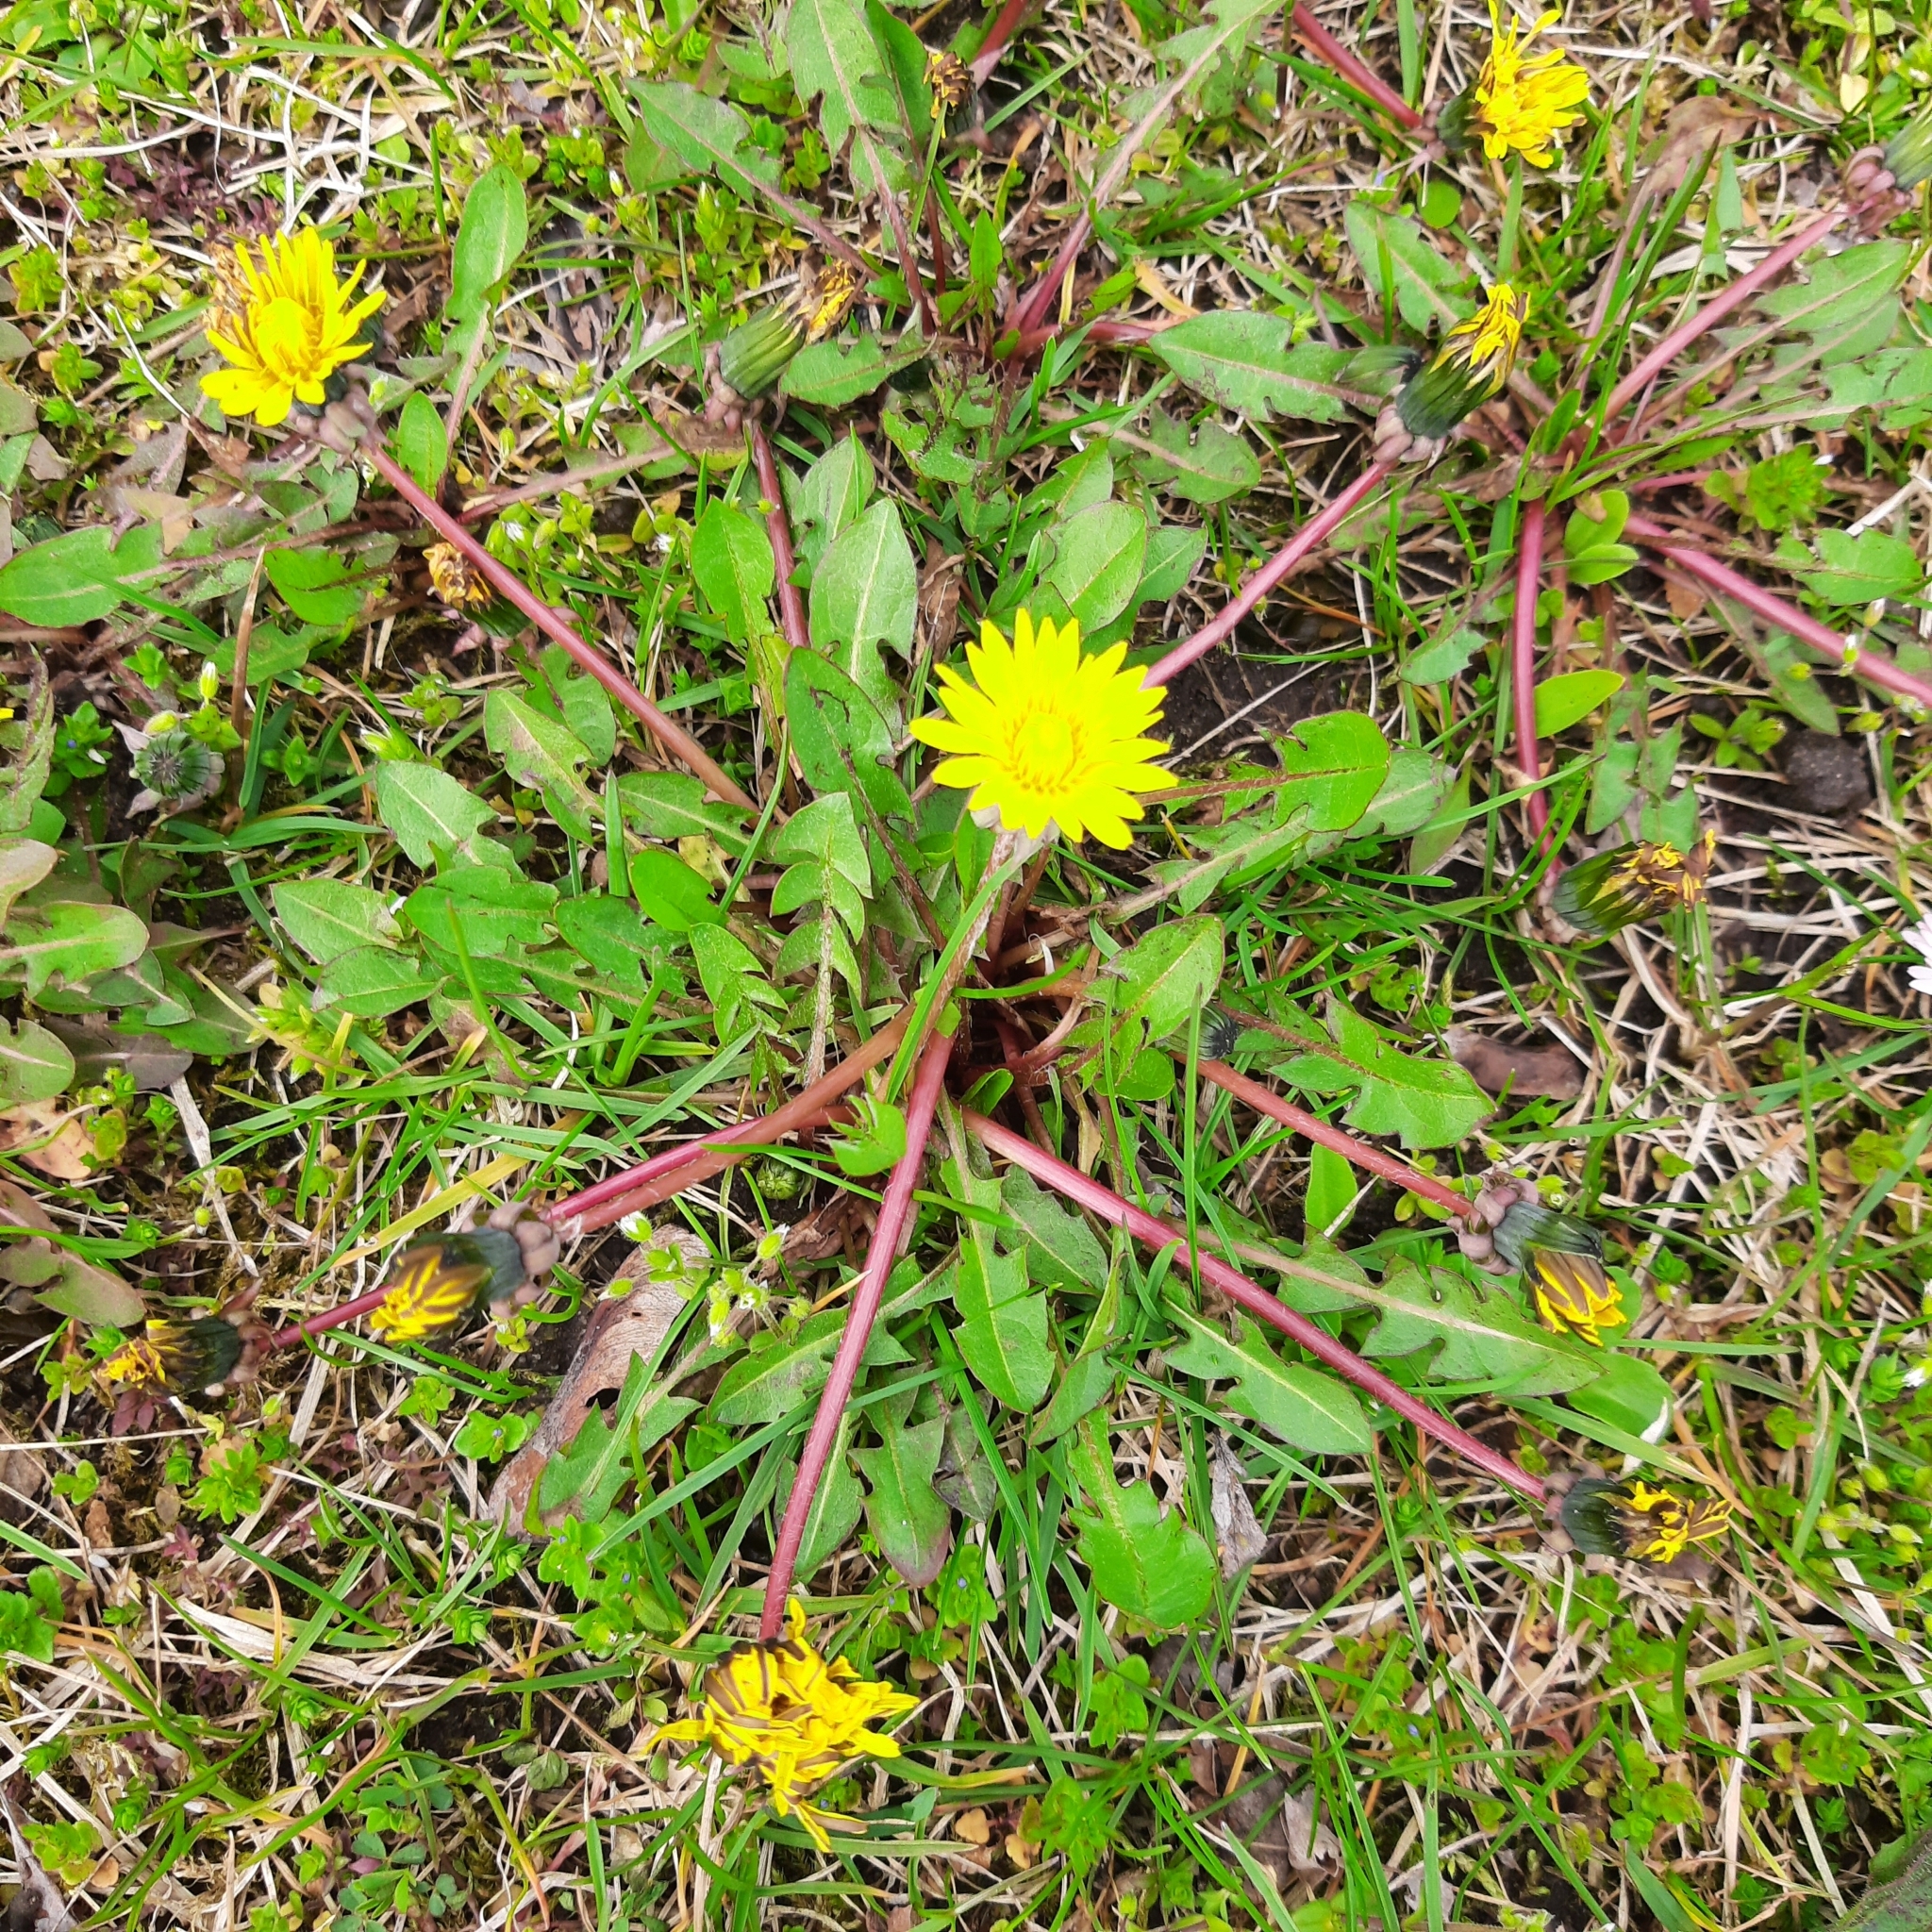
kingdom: Plantae
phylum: Tracheophyta
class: Magnoliopsida
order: Asterales
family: Asteraceae
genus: Taraxacum
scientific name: Taraxacum officinale
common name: Common dandelion
